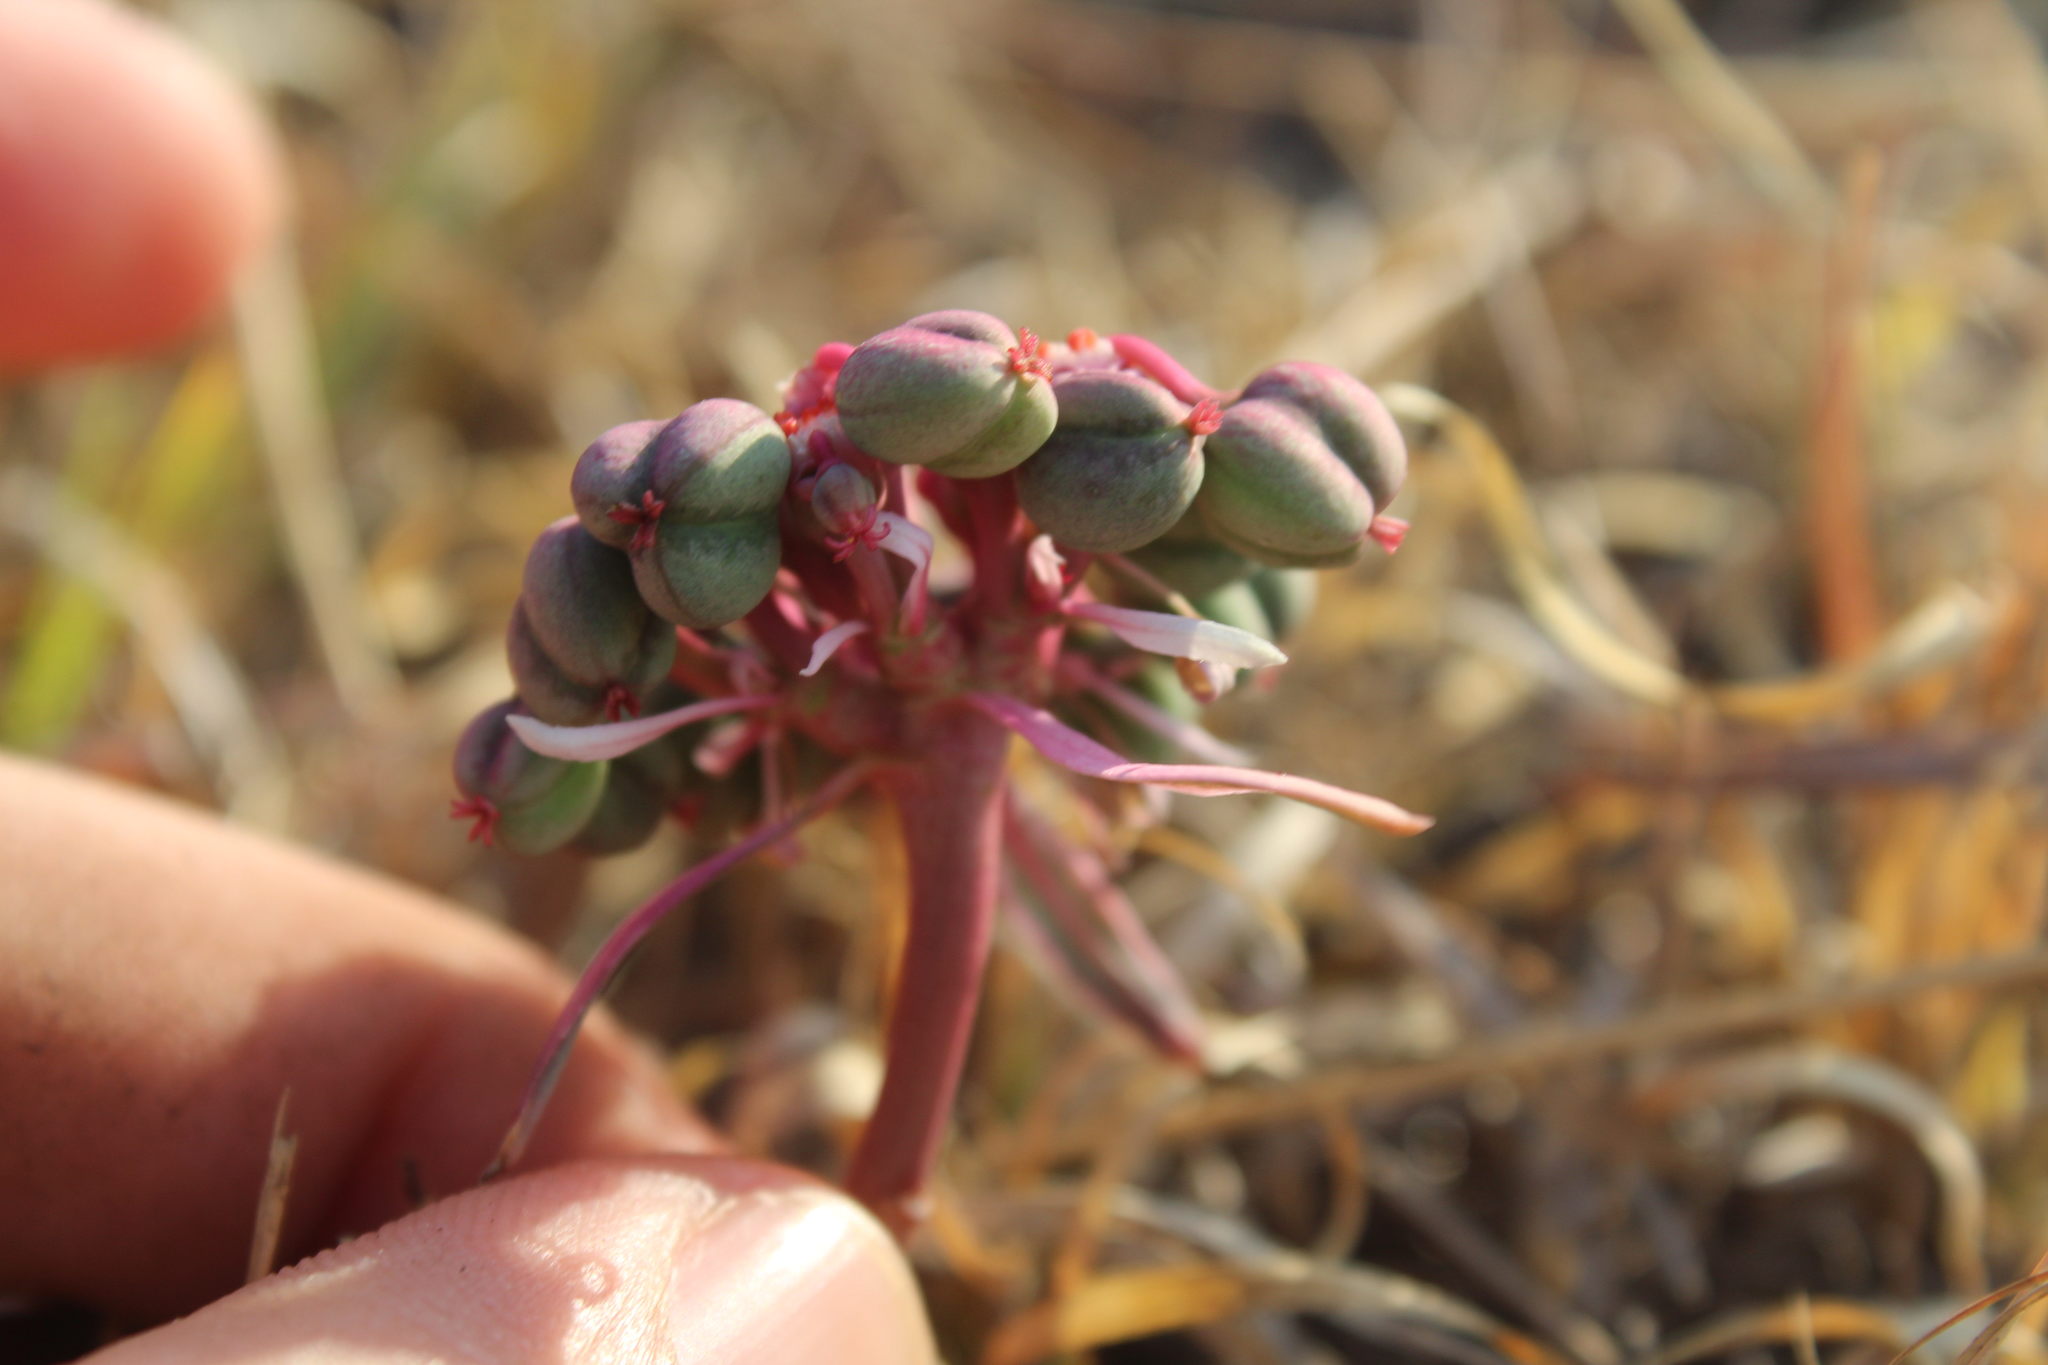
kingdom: Plantae
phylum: Tracheophyta
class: Magnoliopsida
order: Malpighiales
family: Euphorbiaceae
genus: Euphorbia
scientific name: Euphorbia radians
